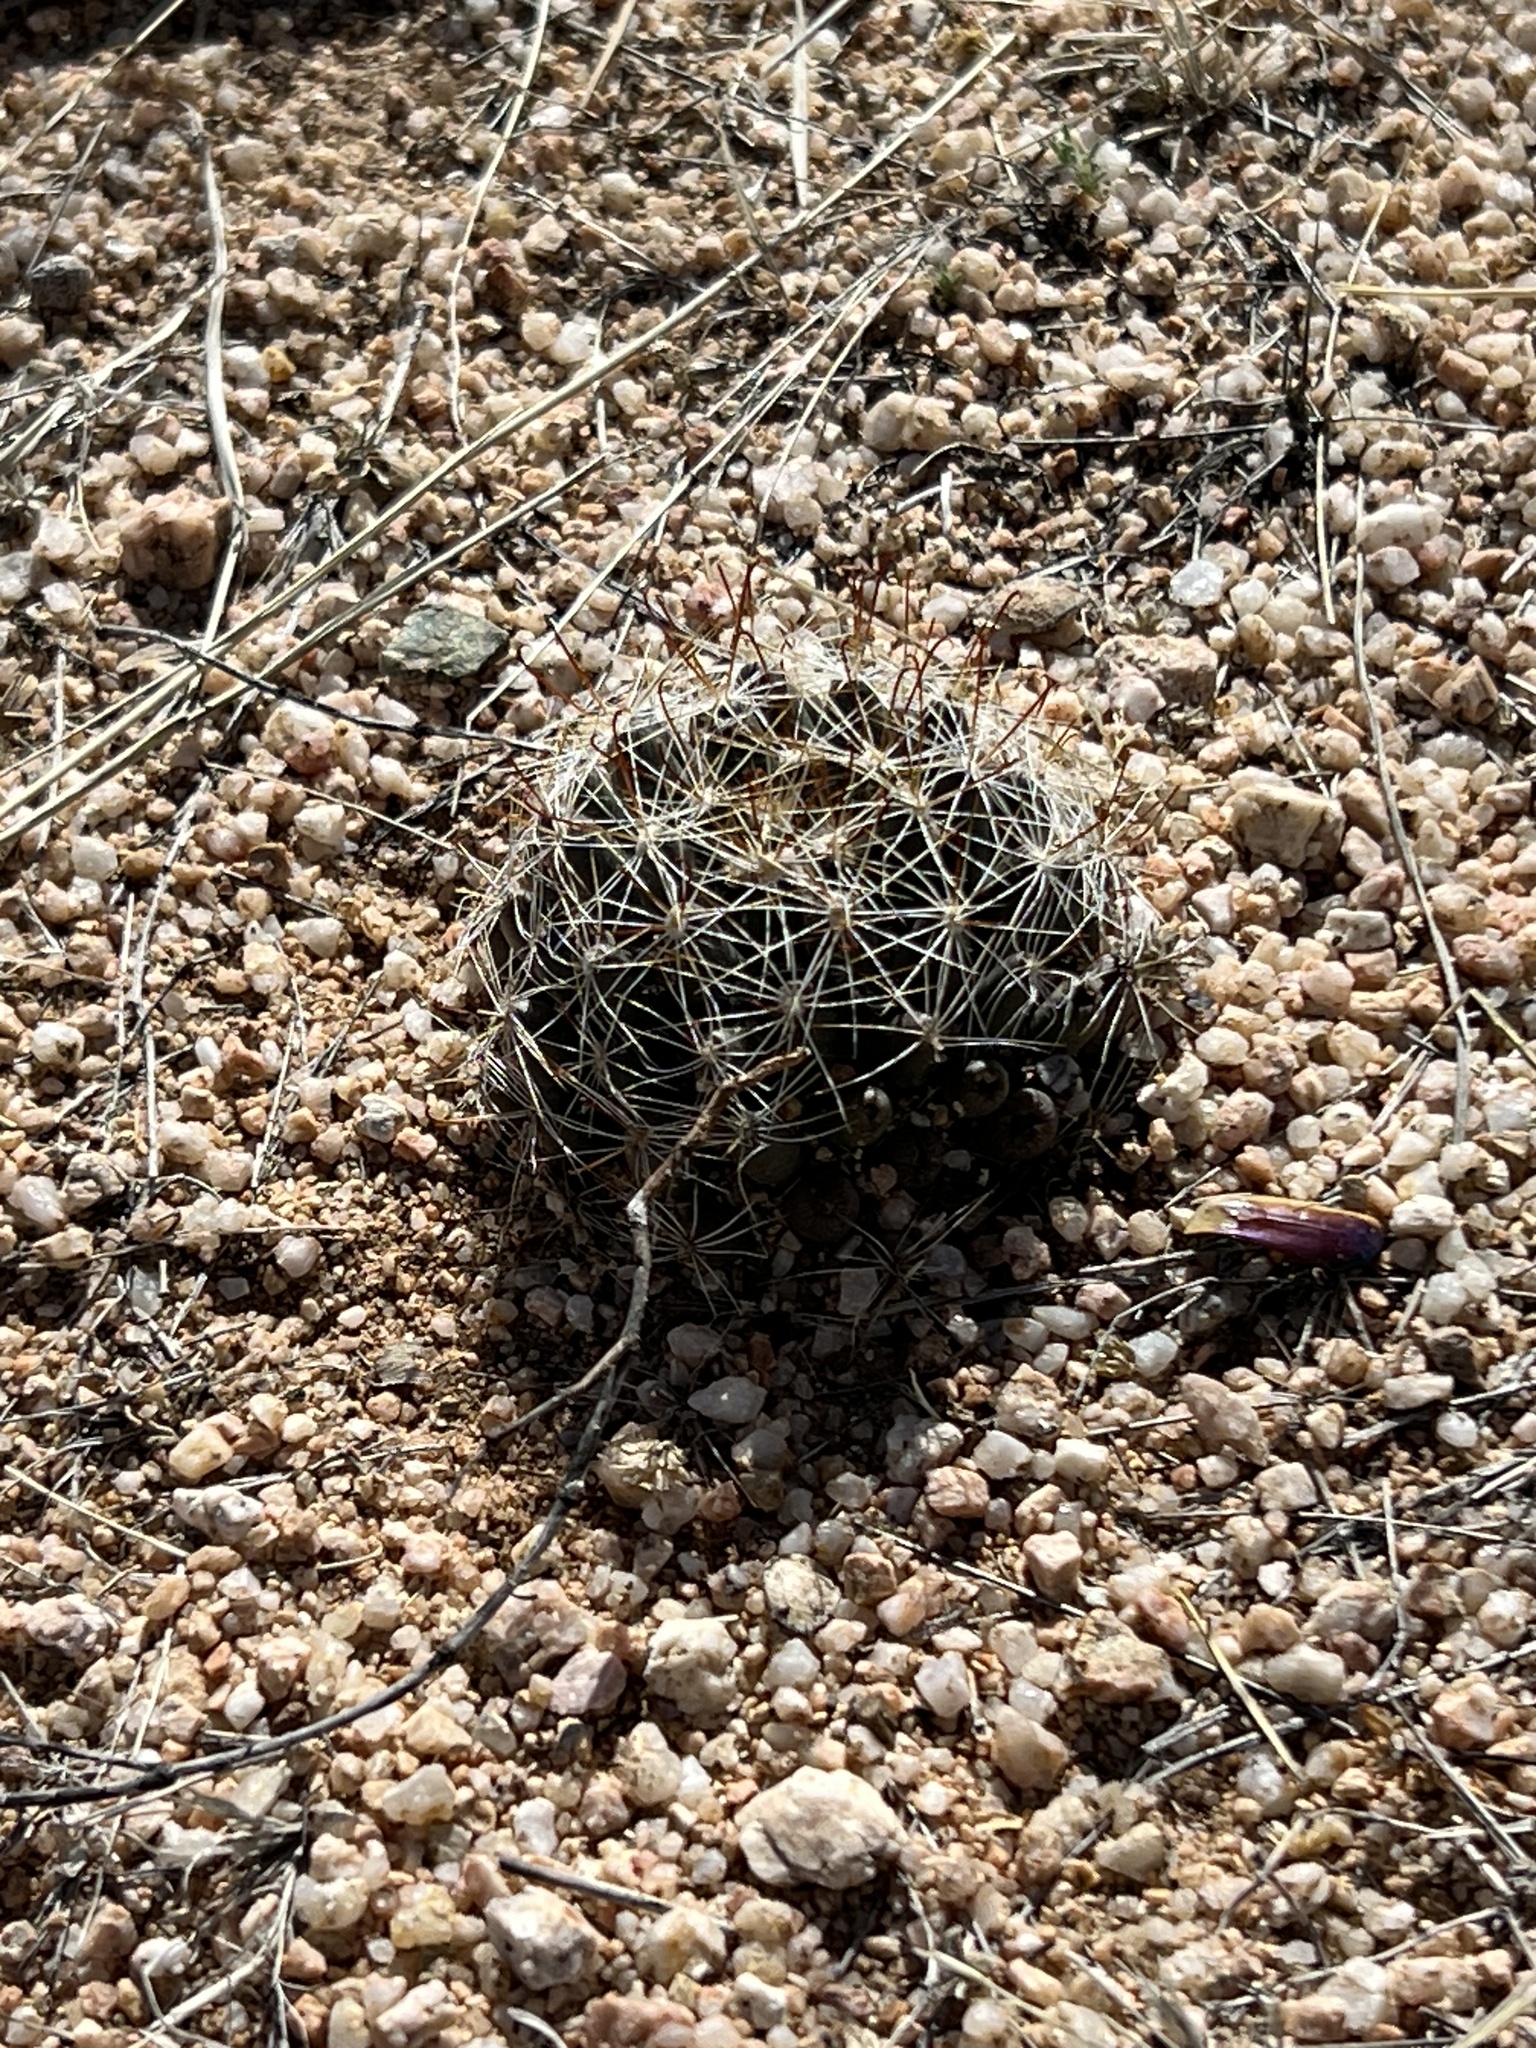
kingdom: Plantae
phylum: Tracheophyta
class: Magnoliopsida
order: Caryophyllales
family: Cactaceae
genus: Cochemiea
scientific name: Cochemiea wrightii
